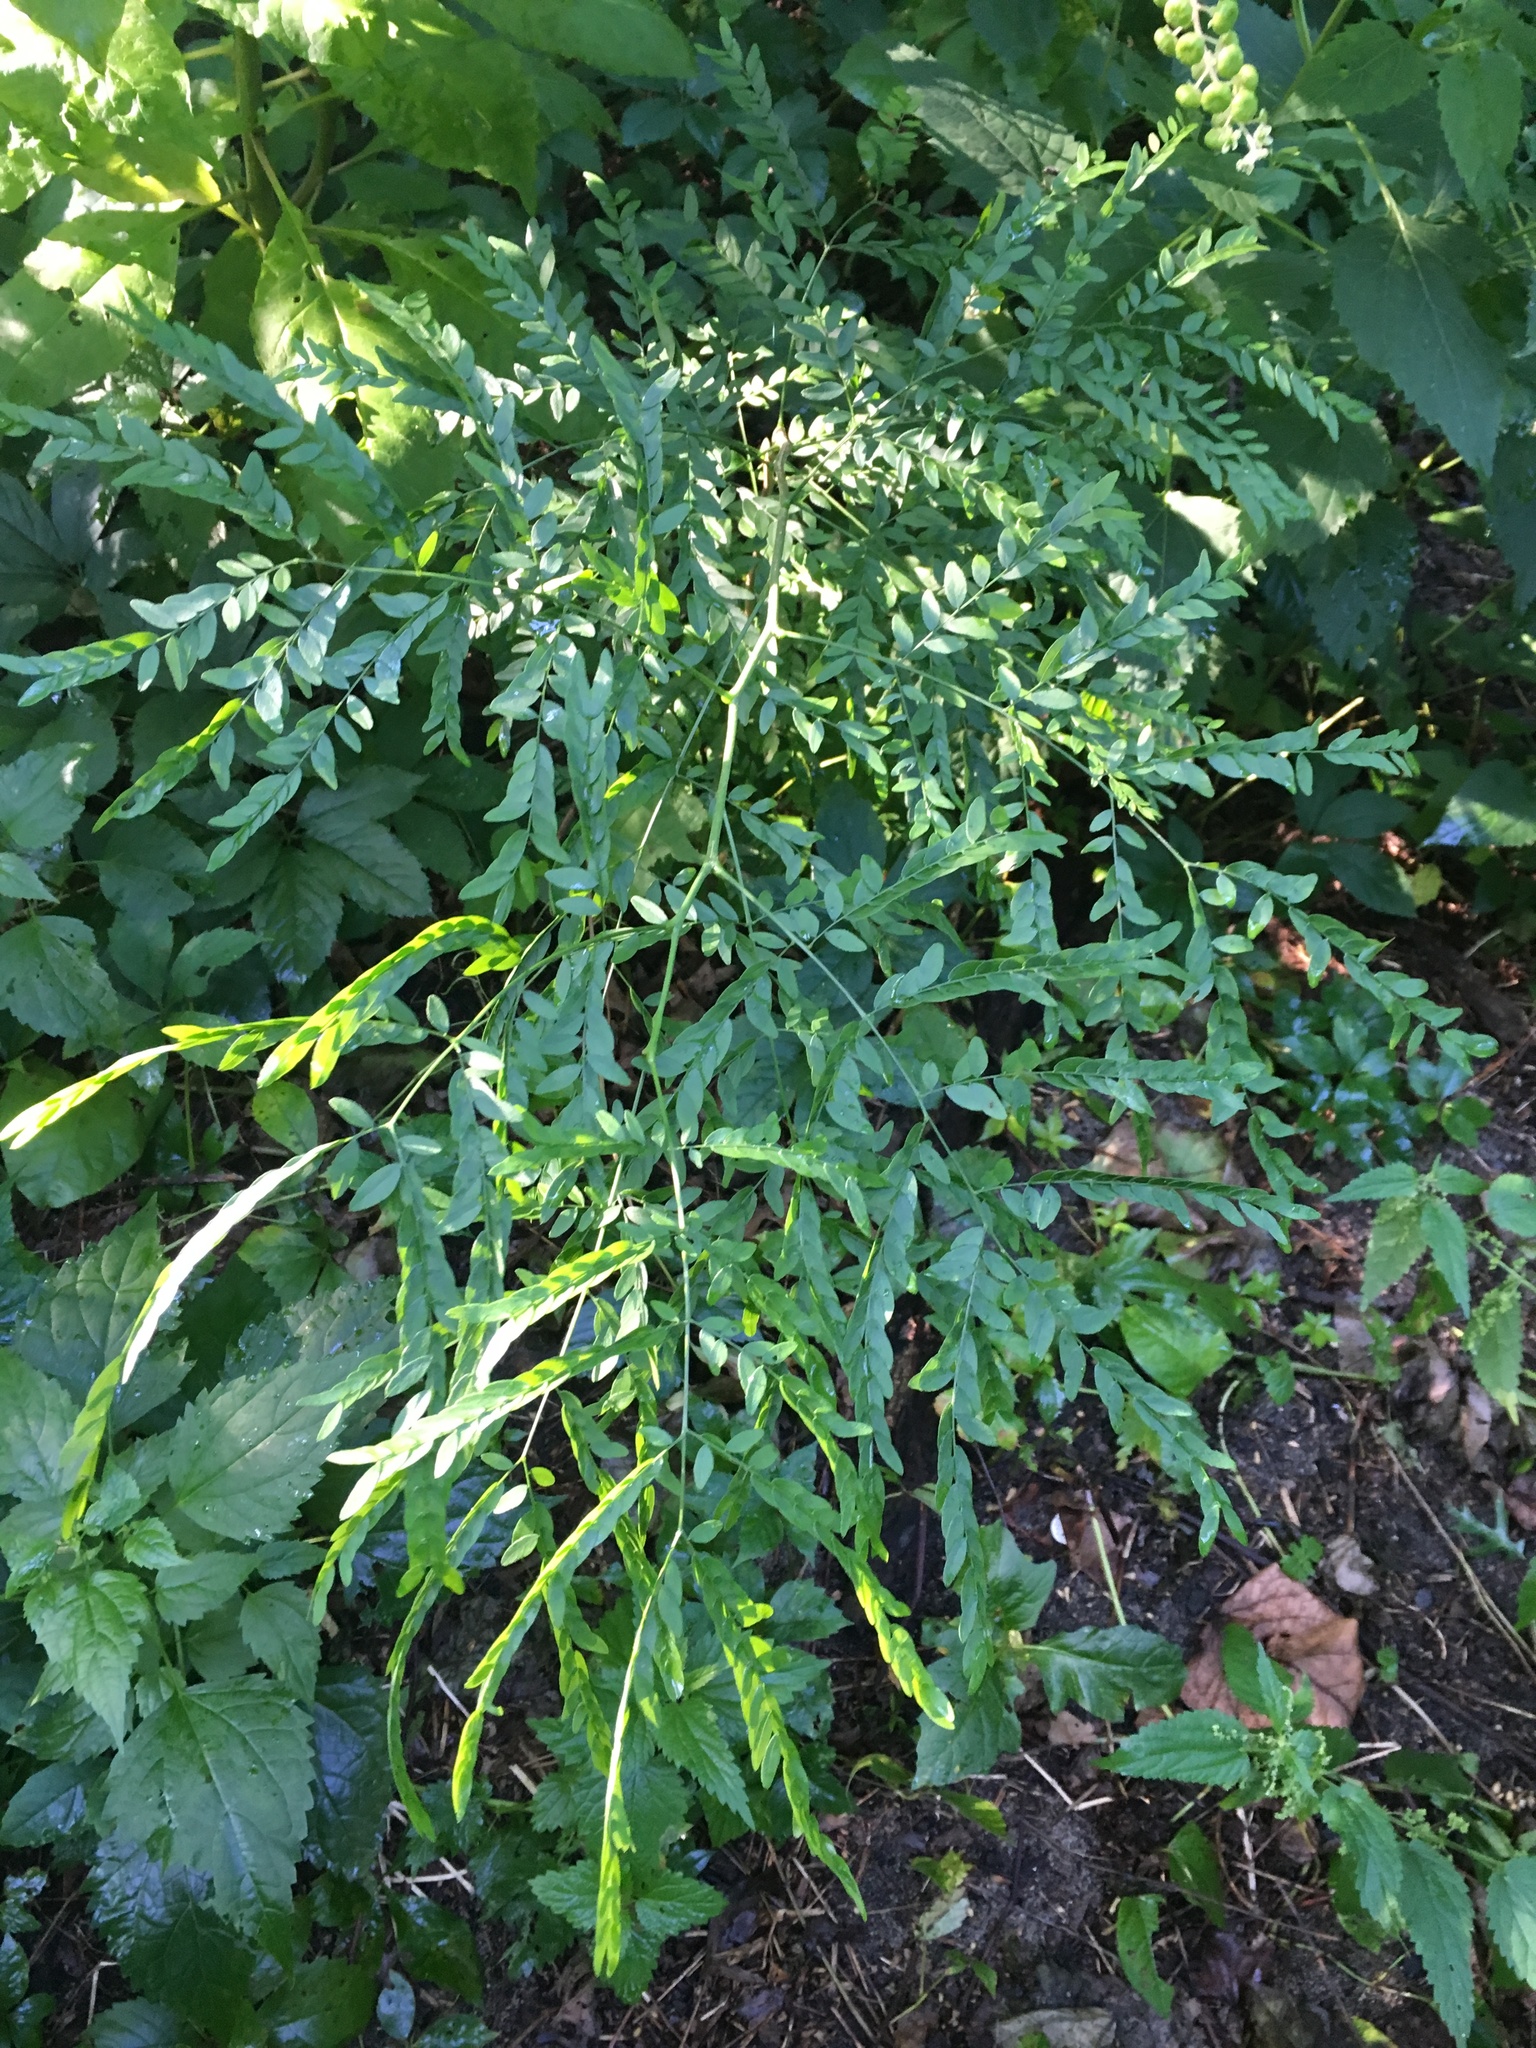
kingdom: Plantae
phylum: Tracheophyta
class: Magnoliopsida
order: Fabales
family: Fabaceae
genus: Gleditsia
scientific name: Gleditsia triacanthos
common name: Common honeylocust
